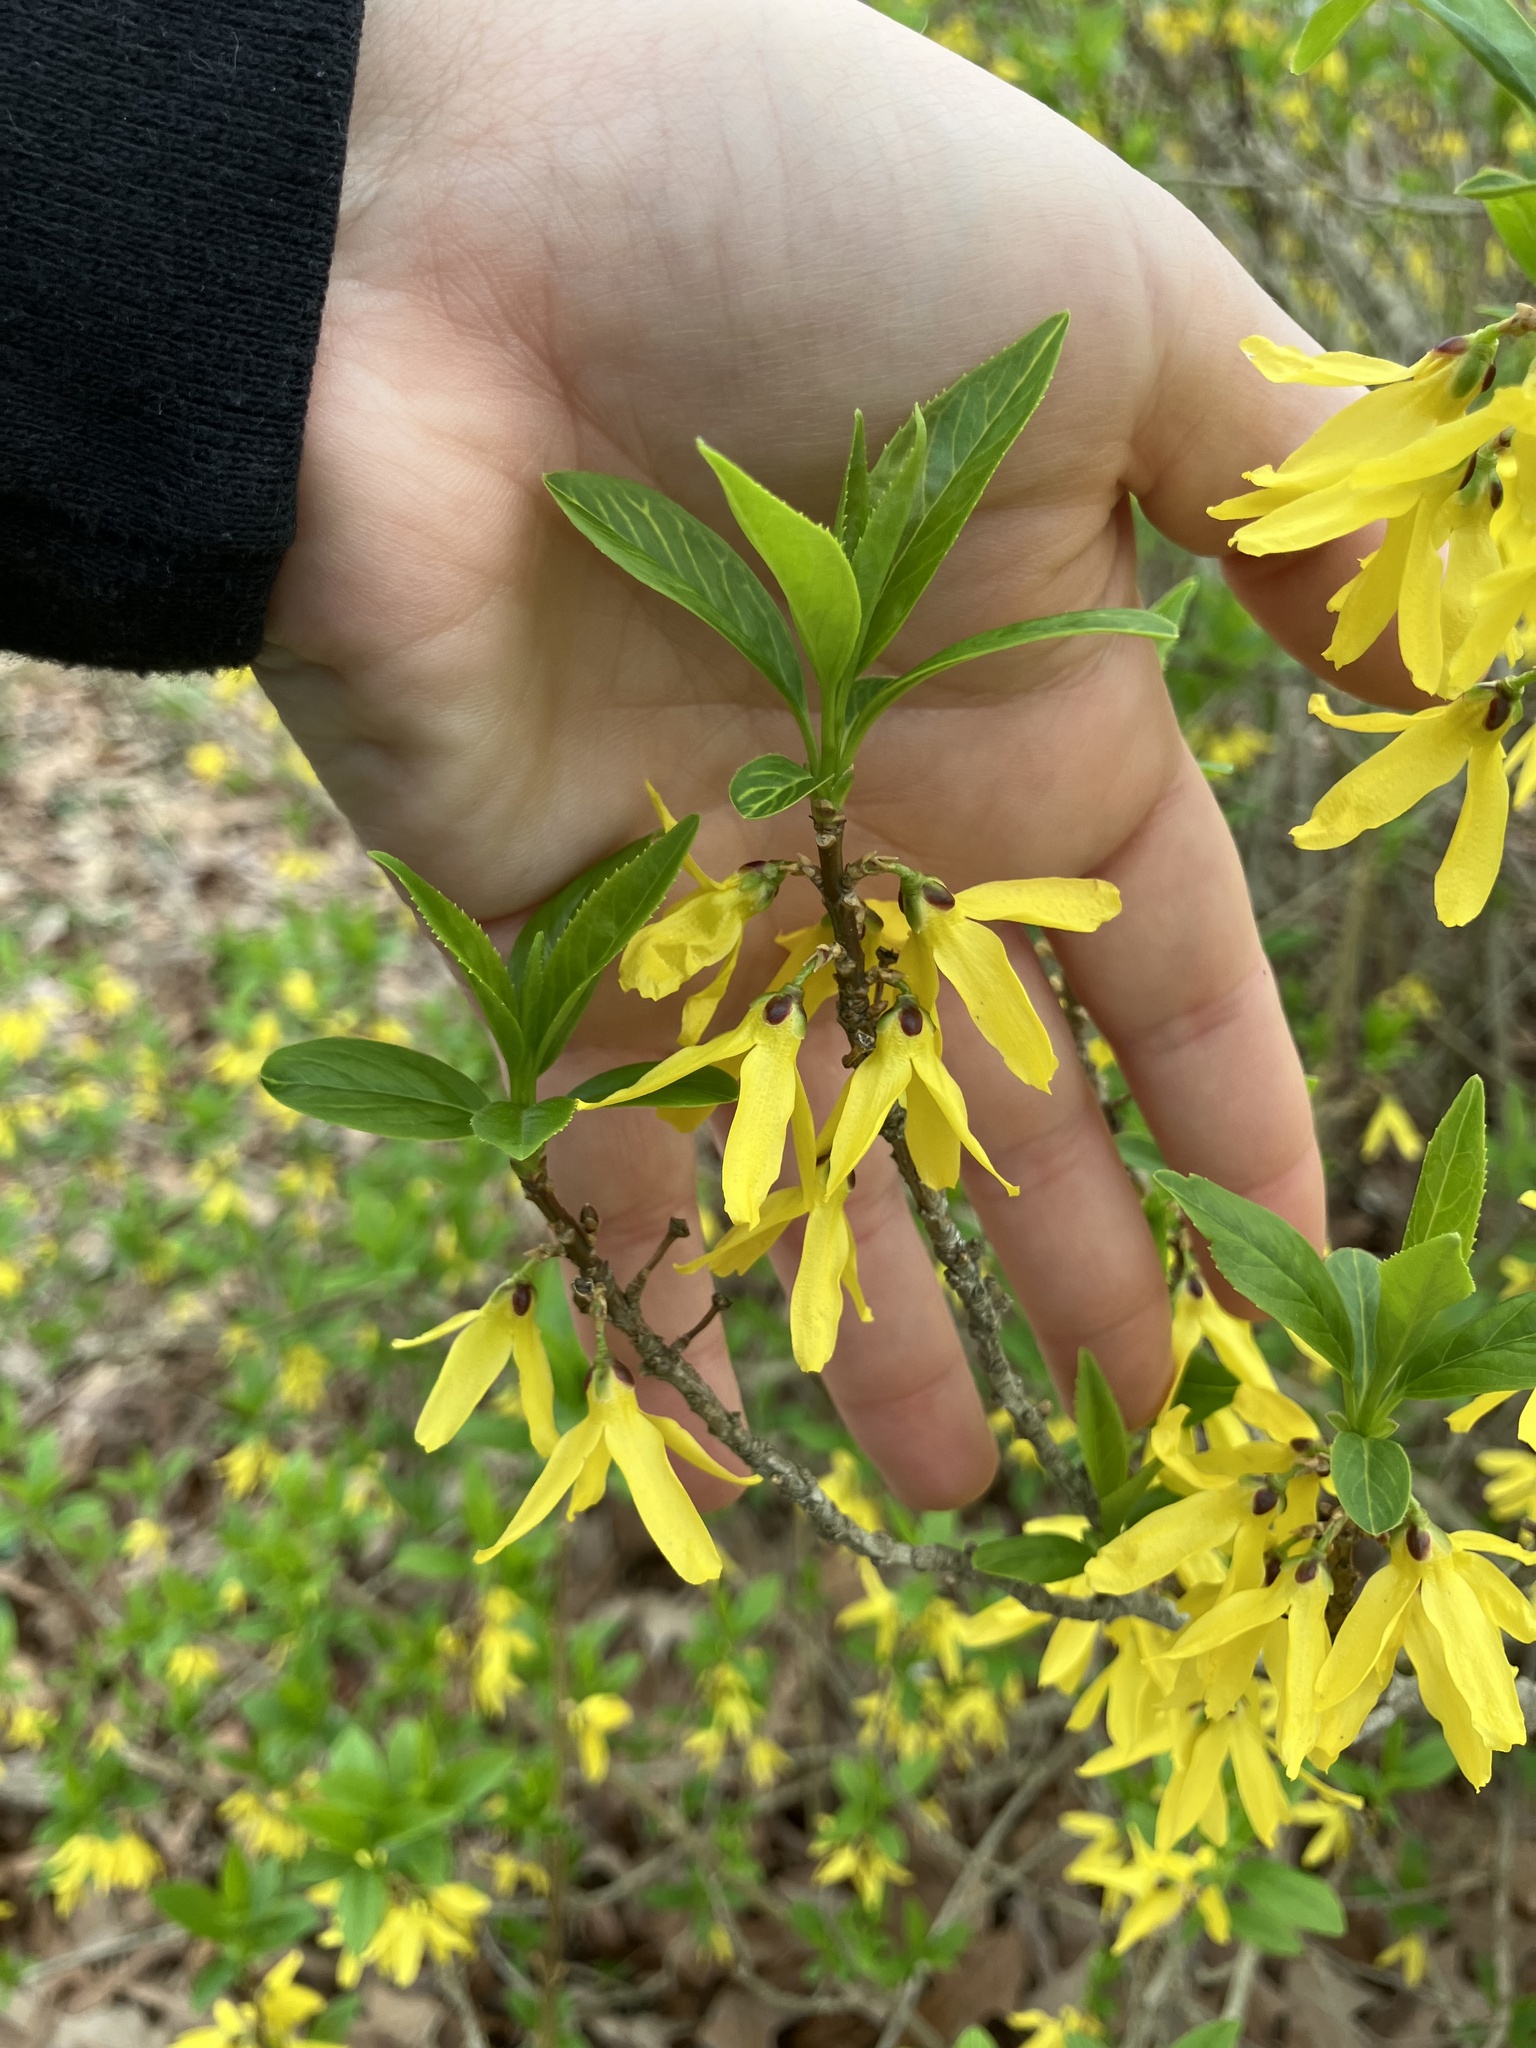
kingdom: Plantae
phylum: Tracheophyta
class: Magnoliopsida
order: Lamiales
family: Oleaceae
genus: Forsythia
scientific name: Forsythia viridissima
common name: Greenstem forsythia
